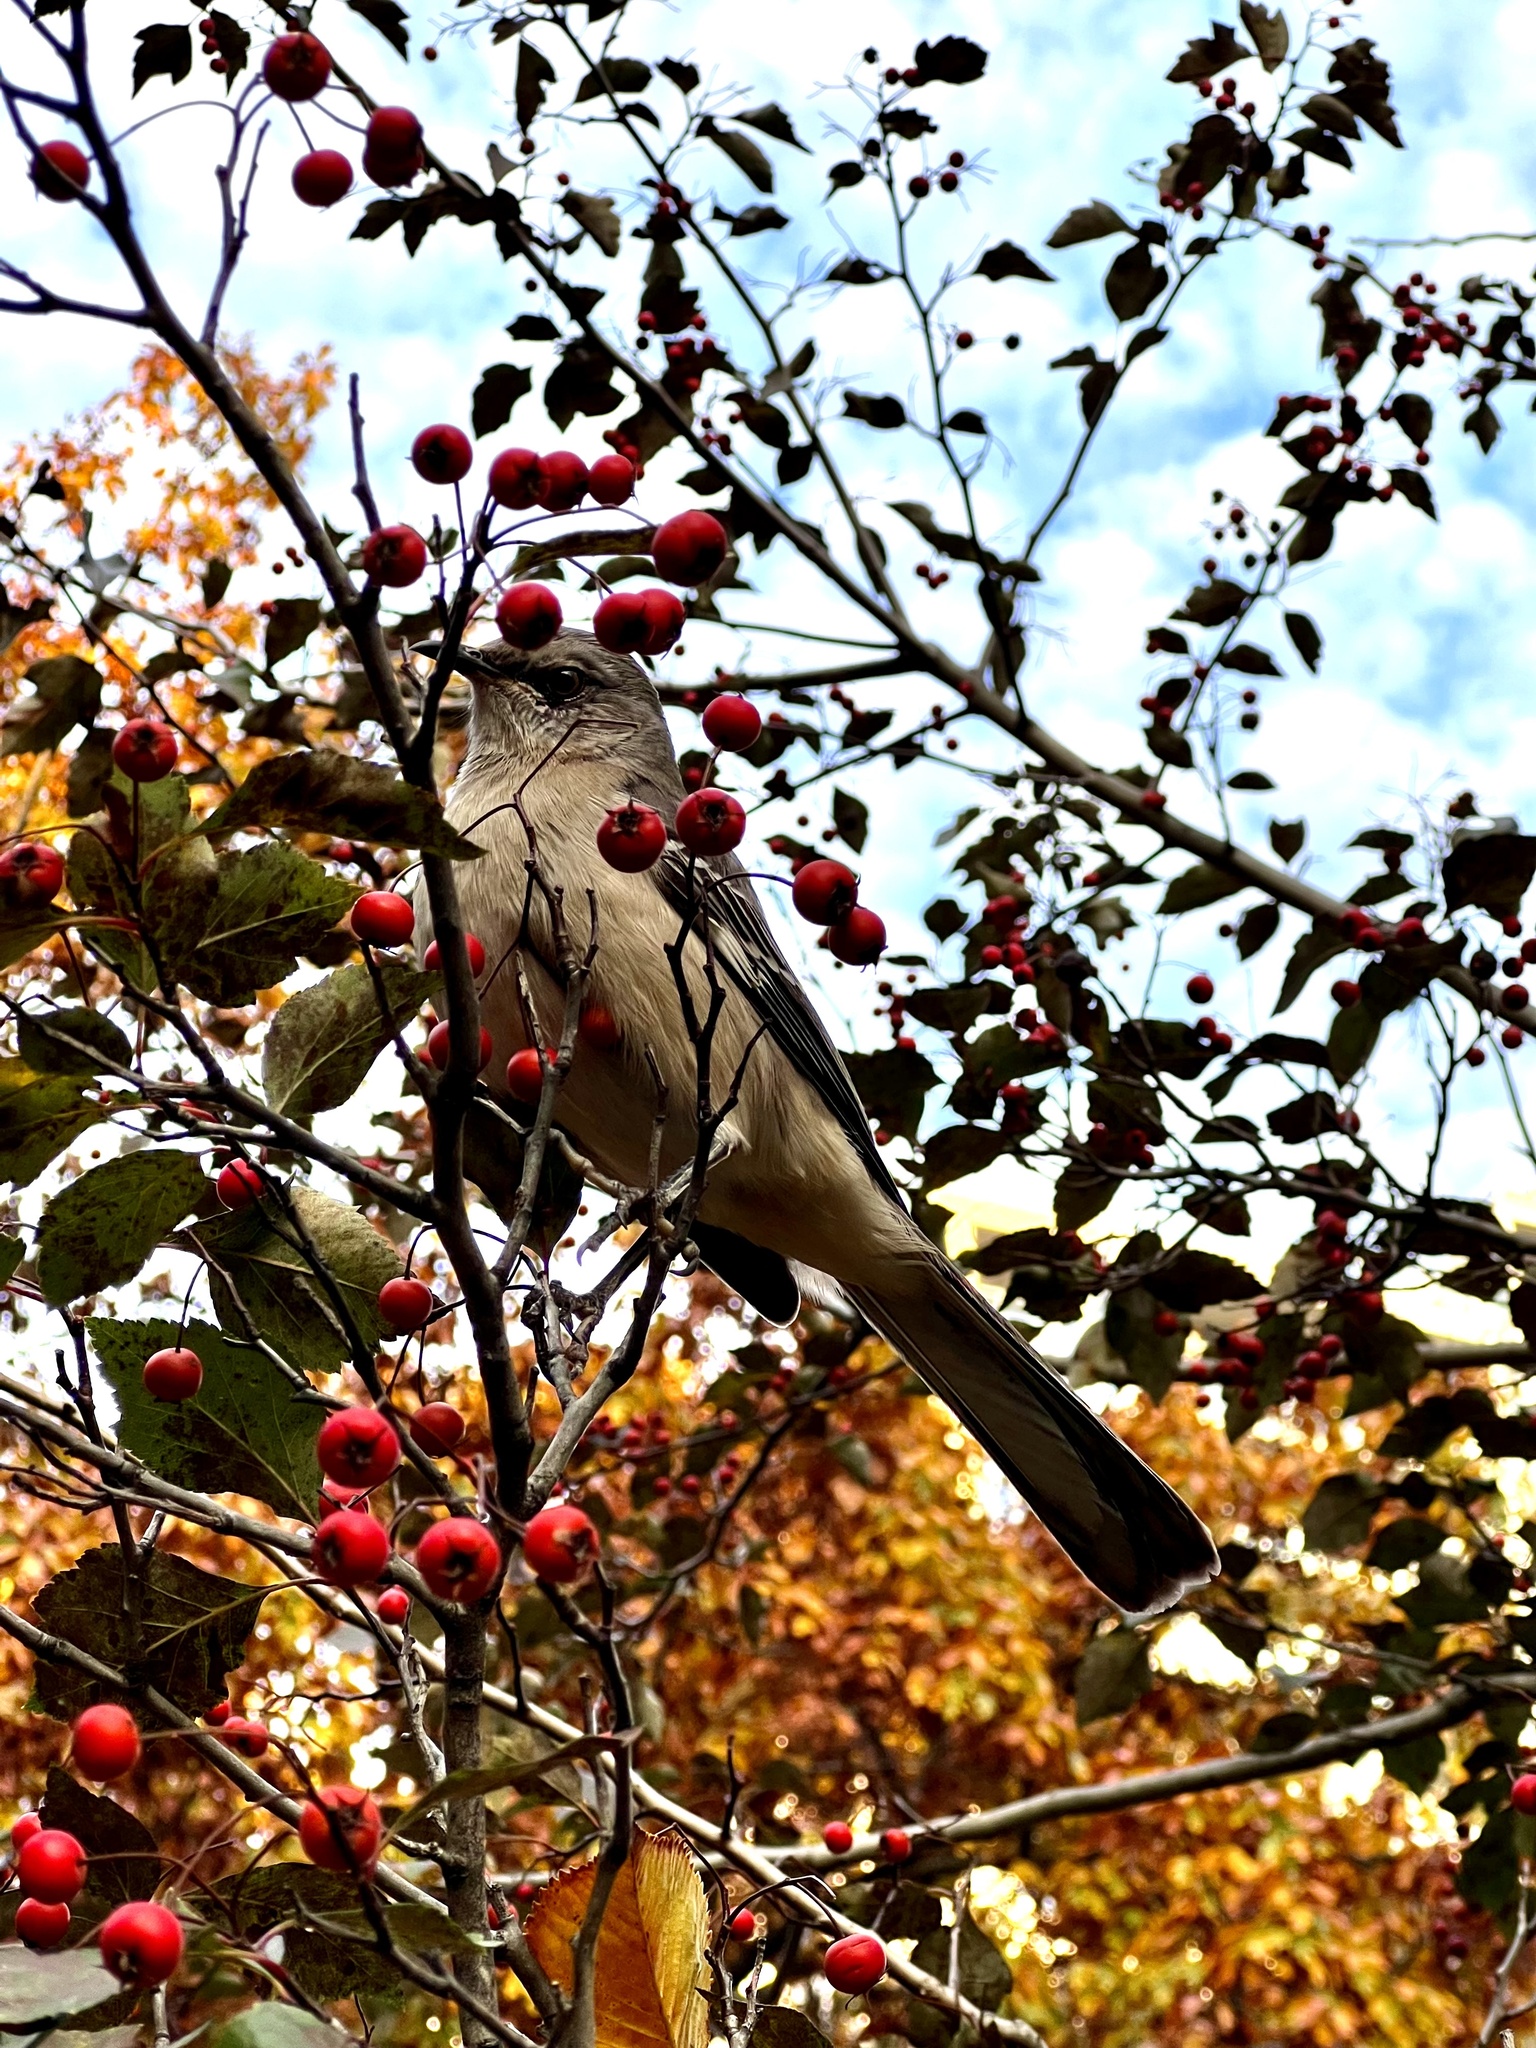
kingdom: Animalia
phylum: Chordata
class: Aves
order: Passeriformes
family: Mimidae
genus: Mimus
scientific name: Mimus polyglottos
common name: Northern mockingbird
